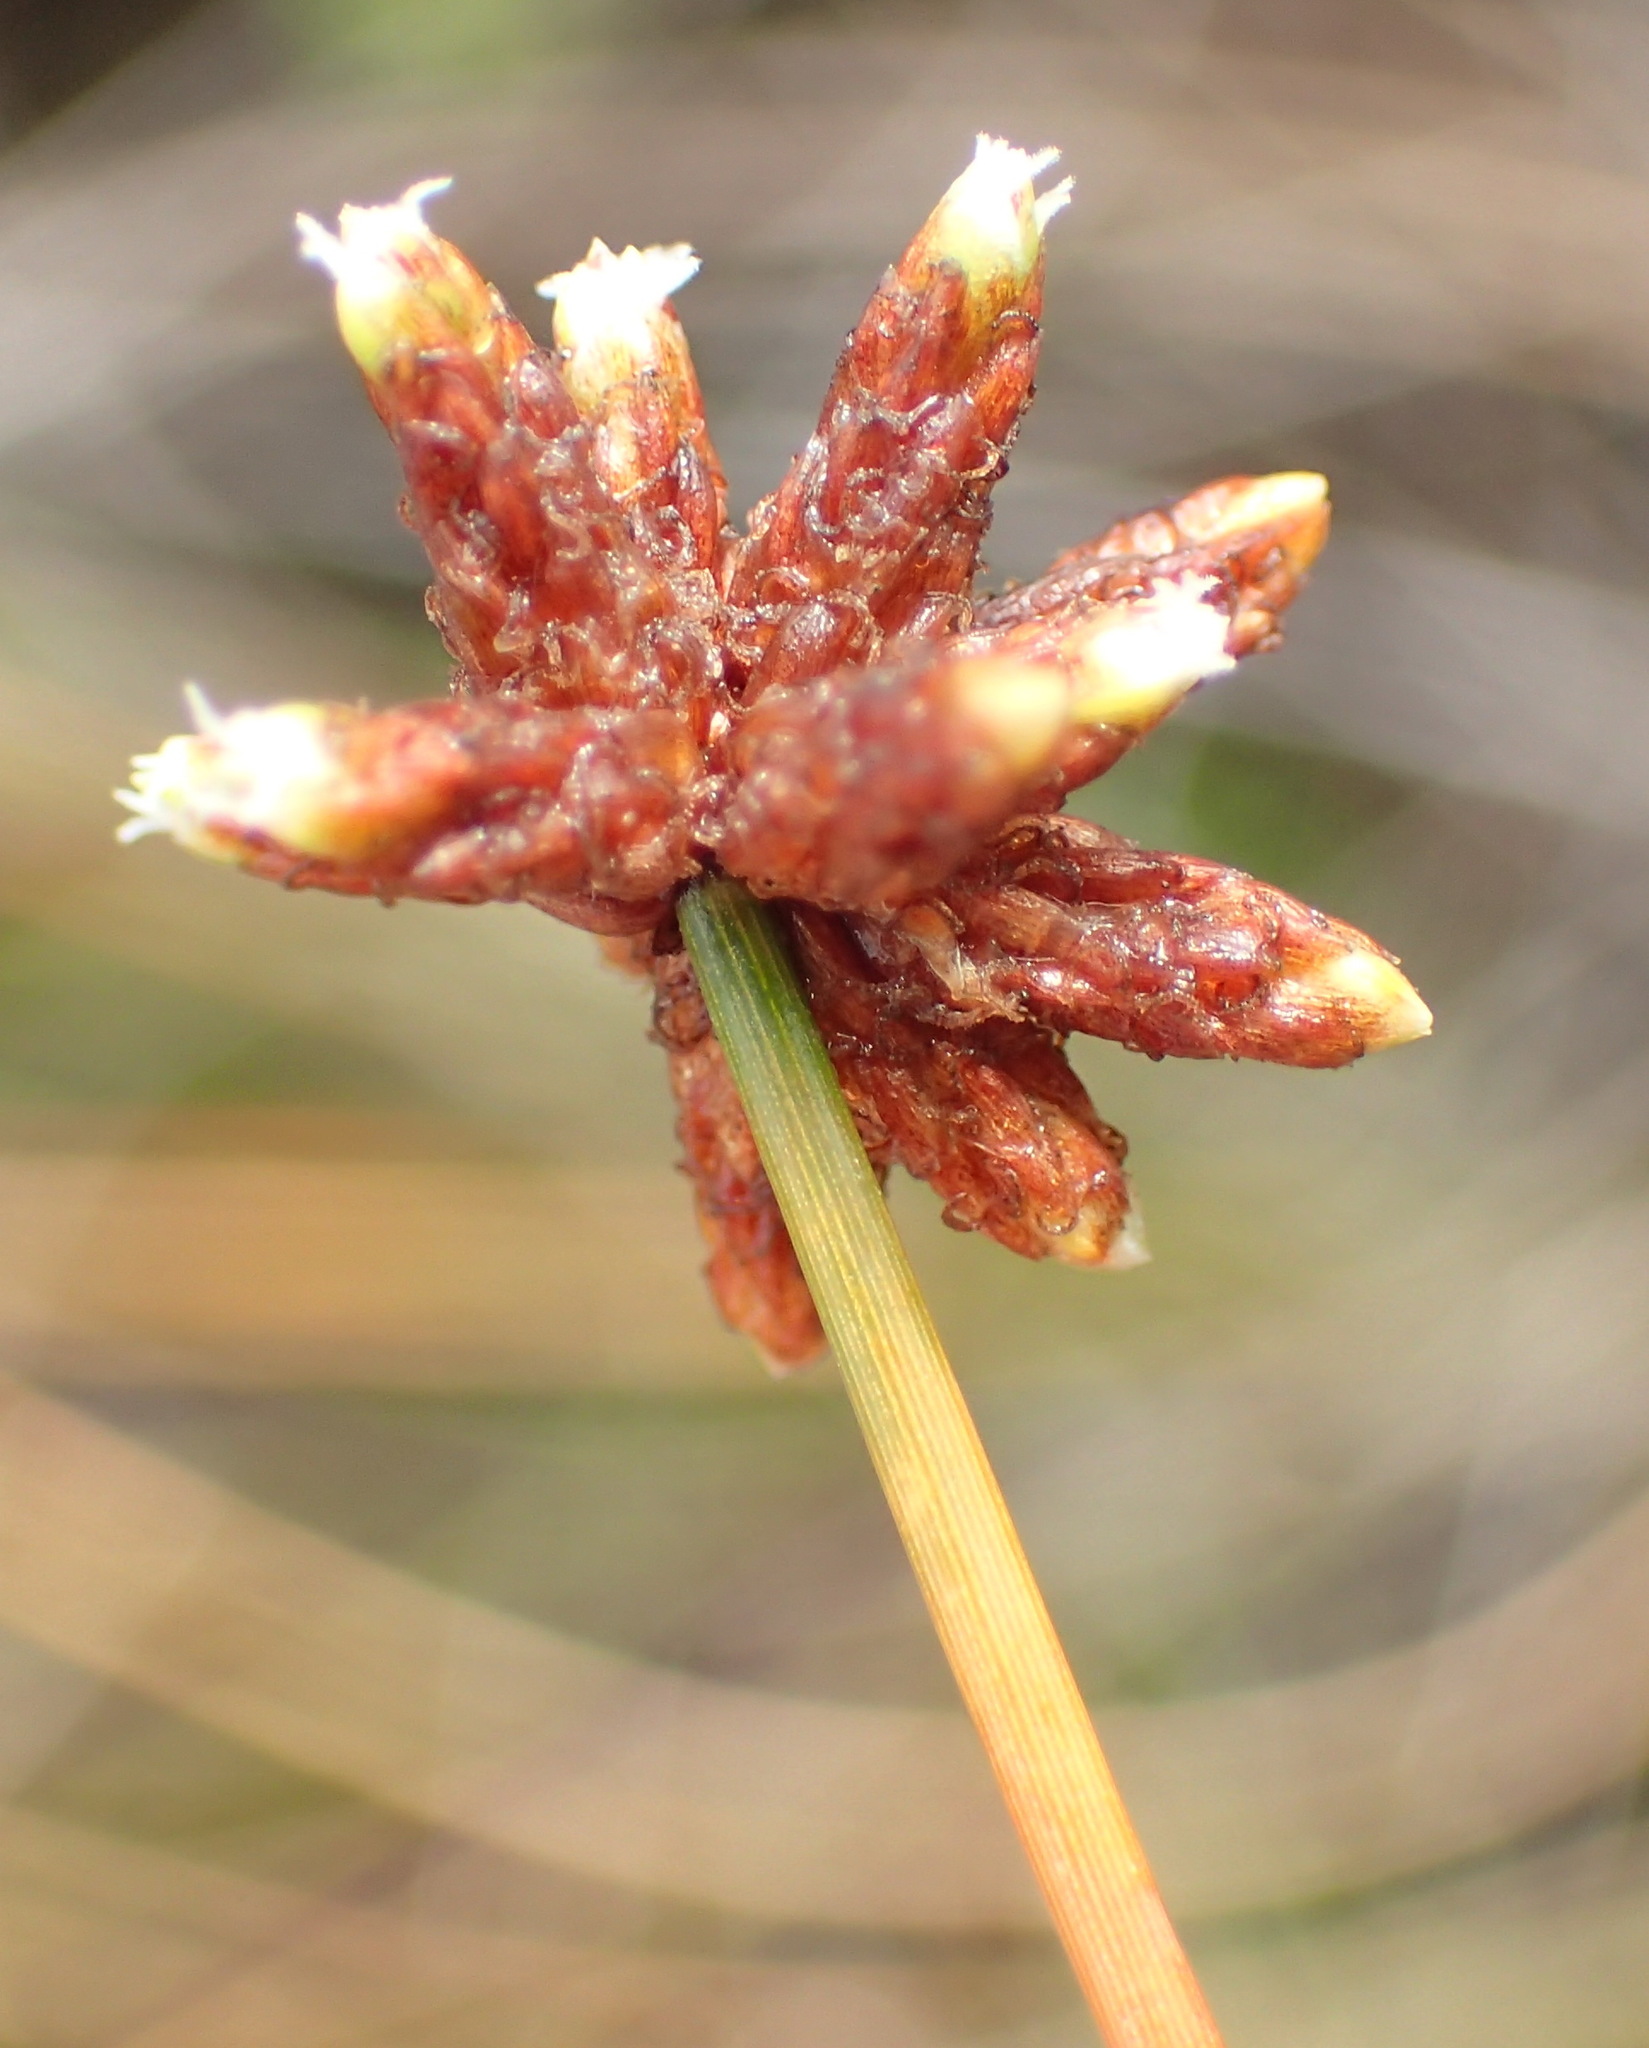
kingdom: Plantae
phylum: Tracheophyta
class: Liliopsida
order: Poales
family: Cyperaceae
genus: Isolepis
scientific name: Isolepis costata
